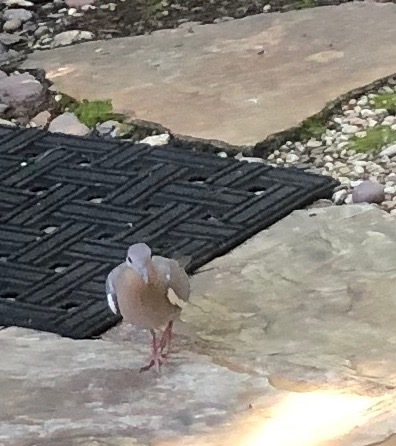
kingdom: Animalia
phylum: Chordata
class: Aves
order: Columbiformes
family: Columbidae
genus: Zenaida
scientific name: Zenaida asiatica
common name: White-winged dove
